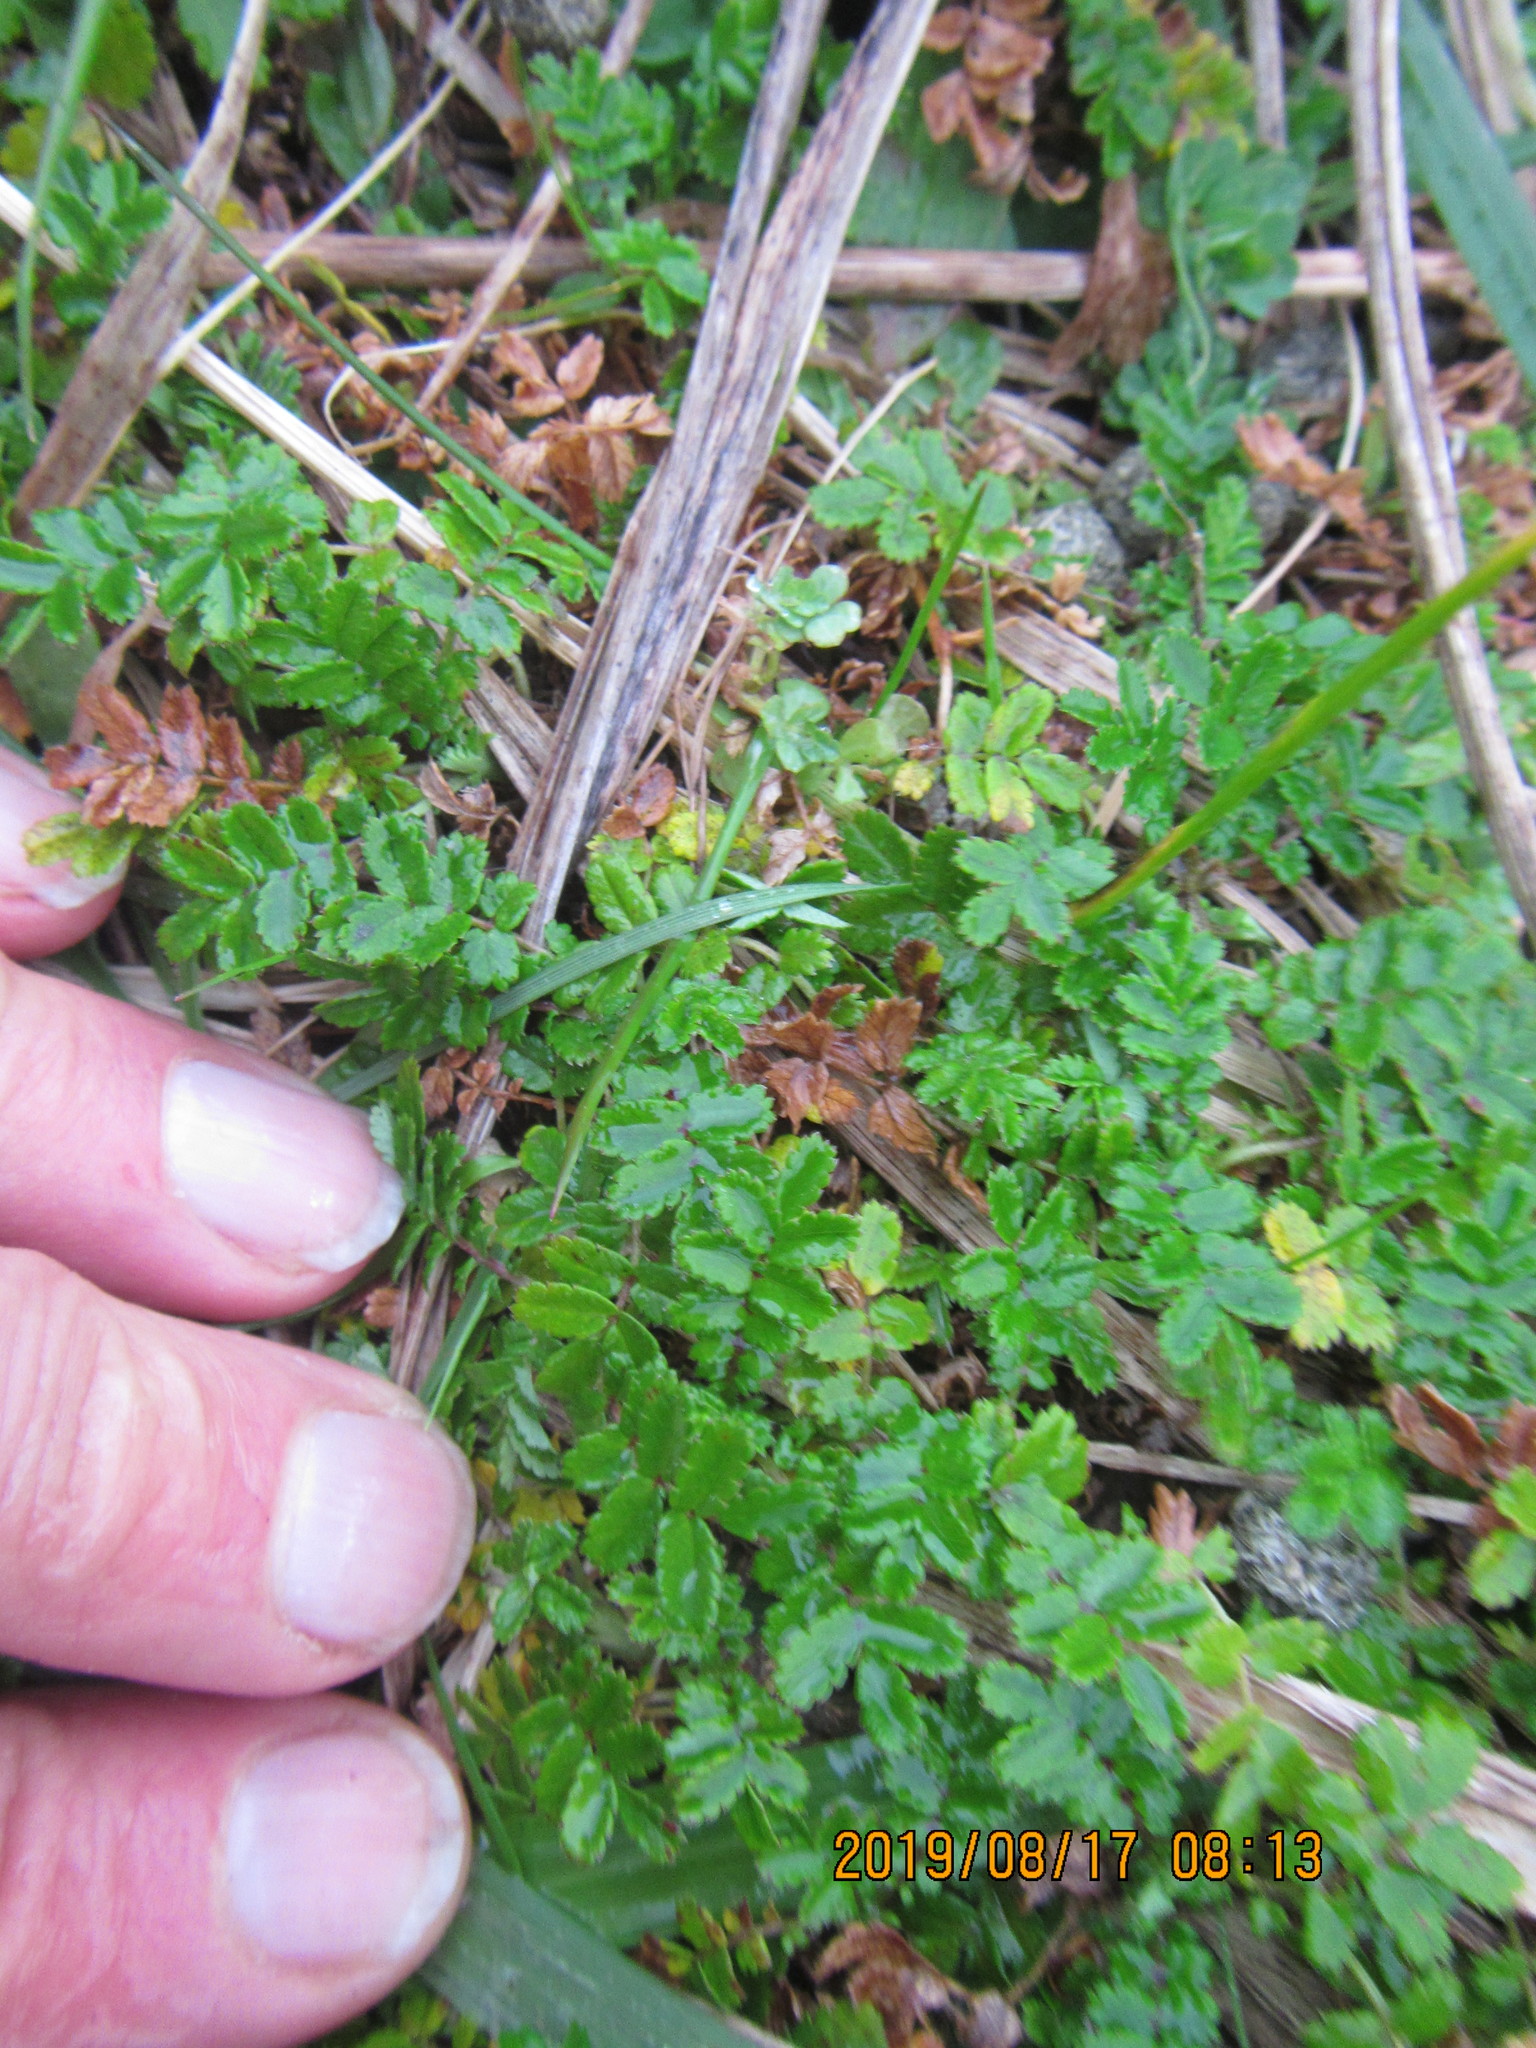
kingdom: Plantae
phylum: Tracheophyta
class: Magnoliopsida
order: Rosales
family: Rosaceae
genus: Acaena
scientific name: Acaena novae-zelandiae
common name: Pirri-pirri-bur
